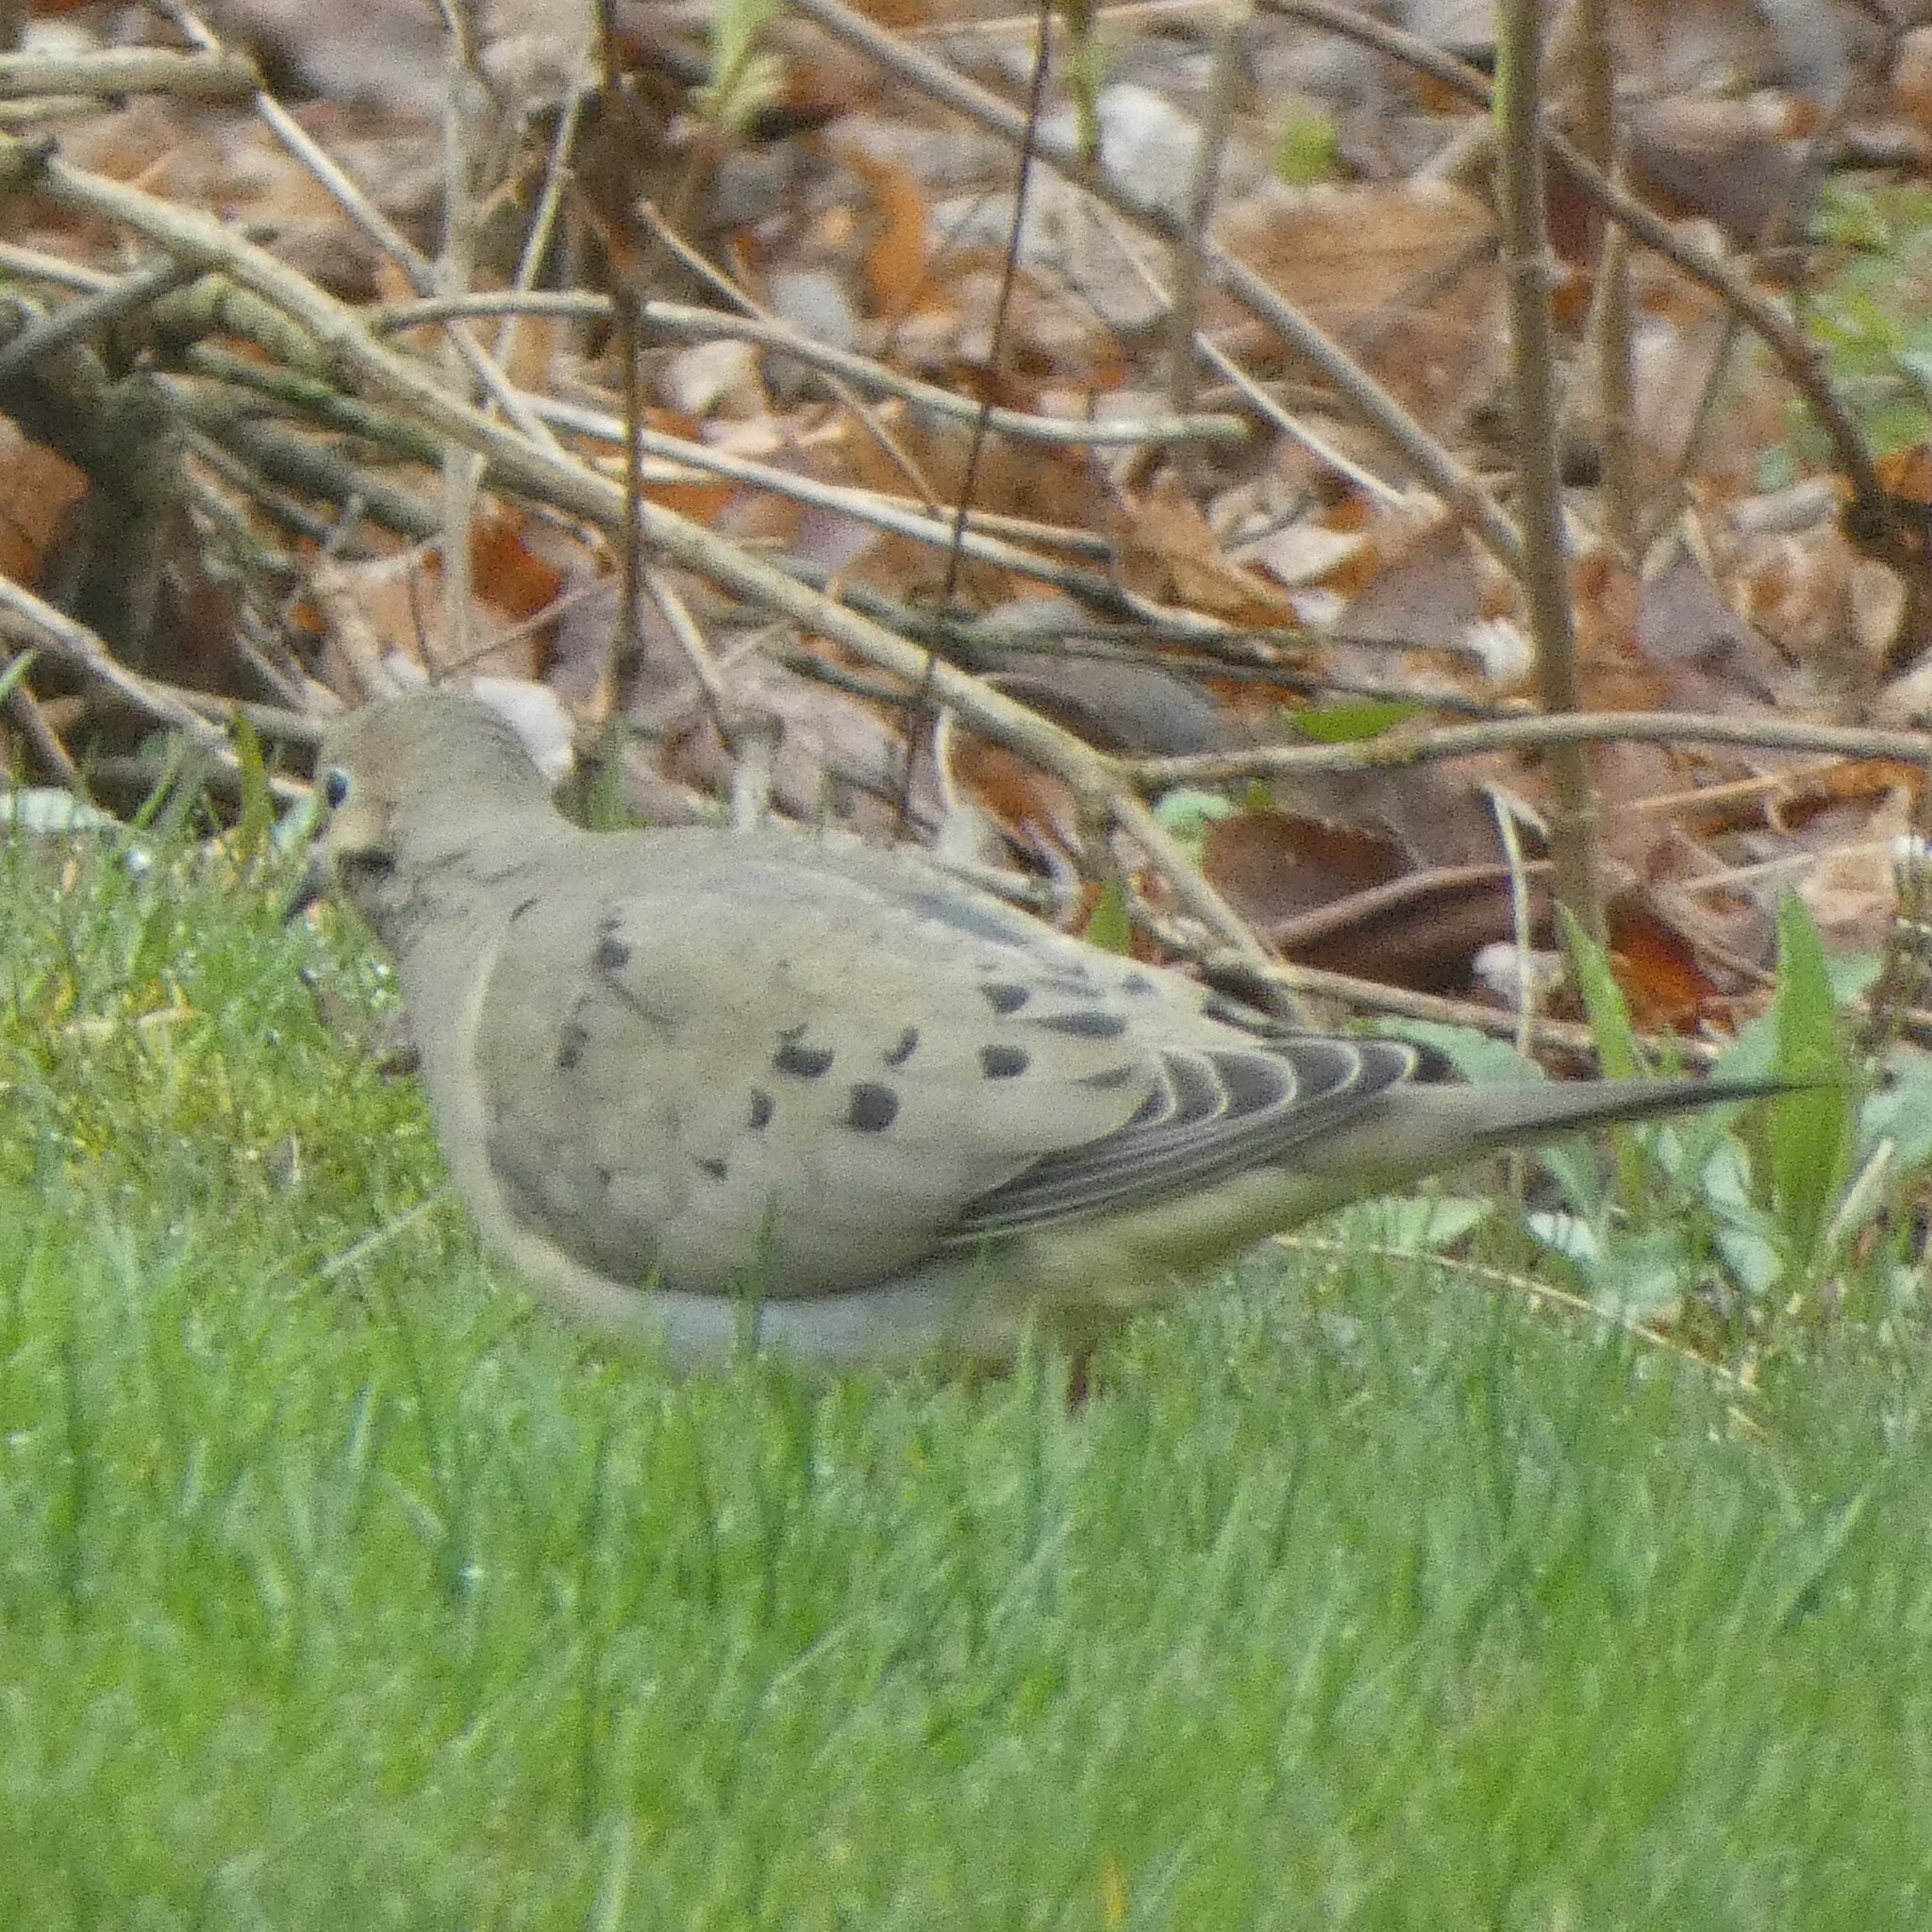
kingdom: Animalia
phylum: Chordata
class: Aves
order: Columbiformes
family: Columbidae
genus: Zenaida
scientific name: Zenaida macroura
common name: Mourning dove
